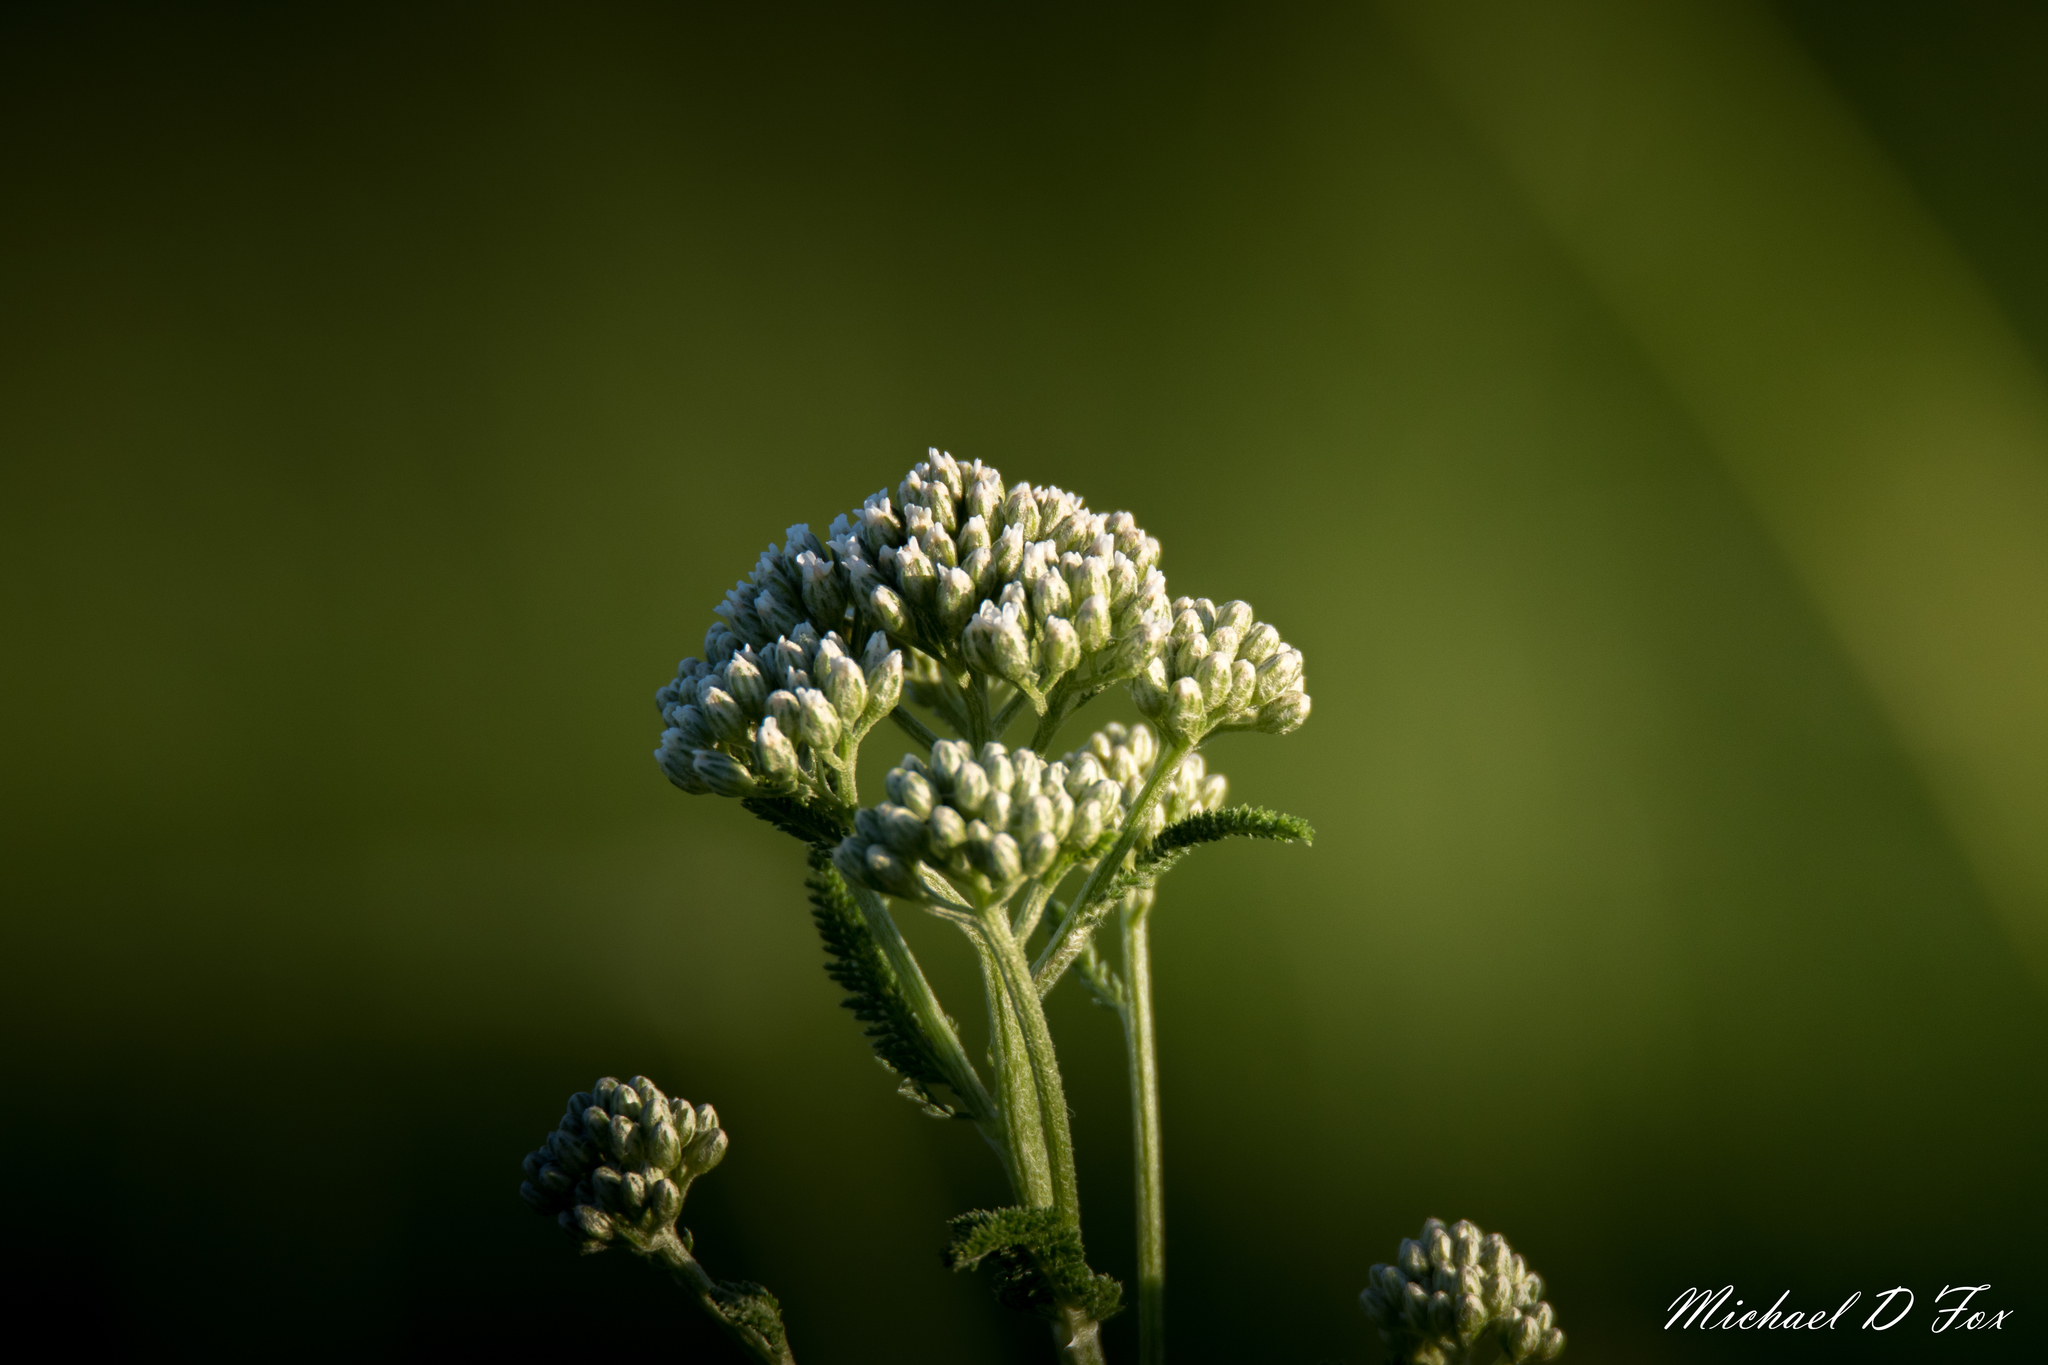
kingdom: Plantae
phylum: Tracheophyta
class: Magnoliopsida
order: Asterales
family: Asteraceae
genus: Achillea
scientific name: Achillea millefolium
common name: Yarrow
